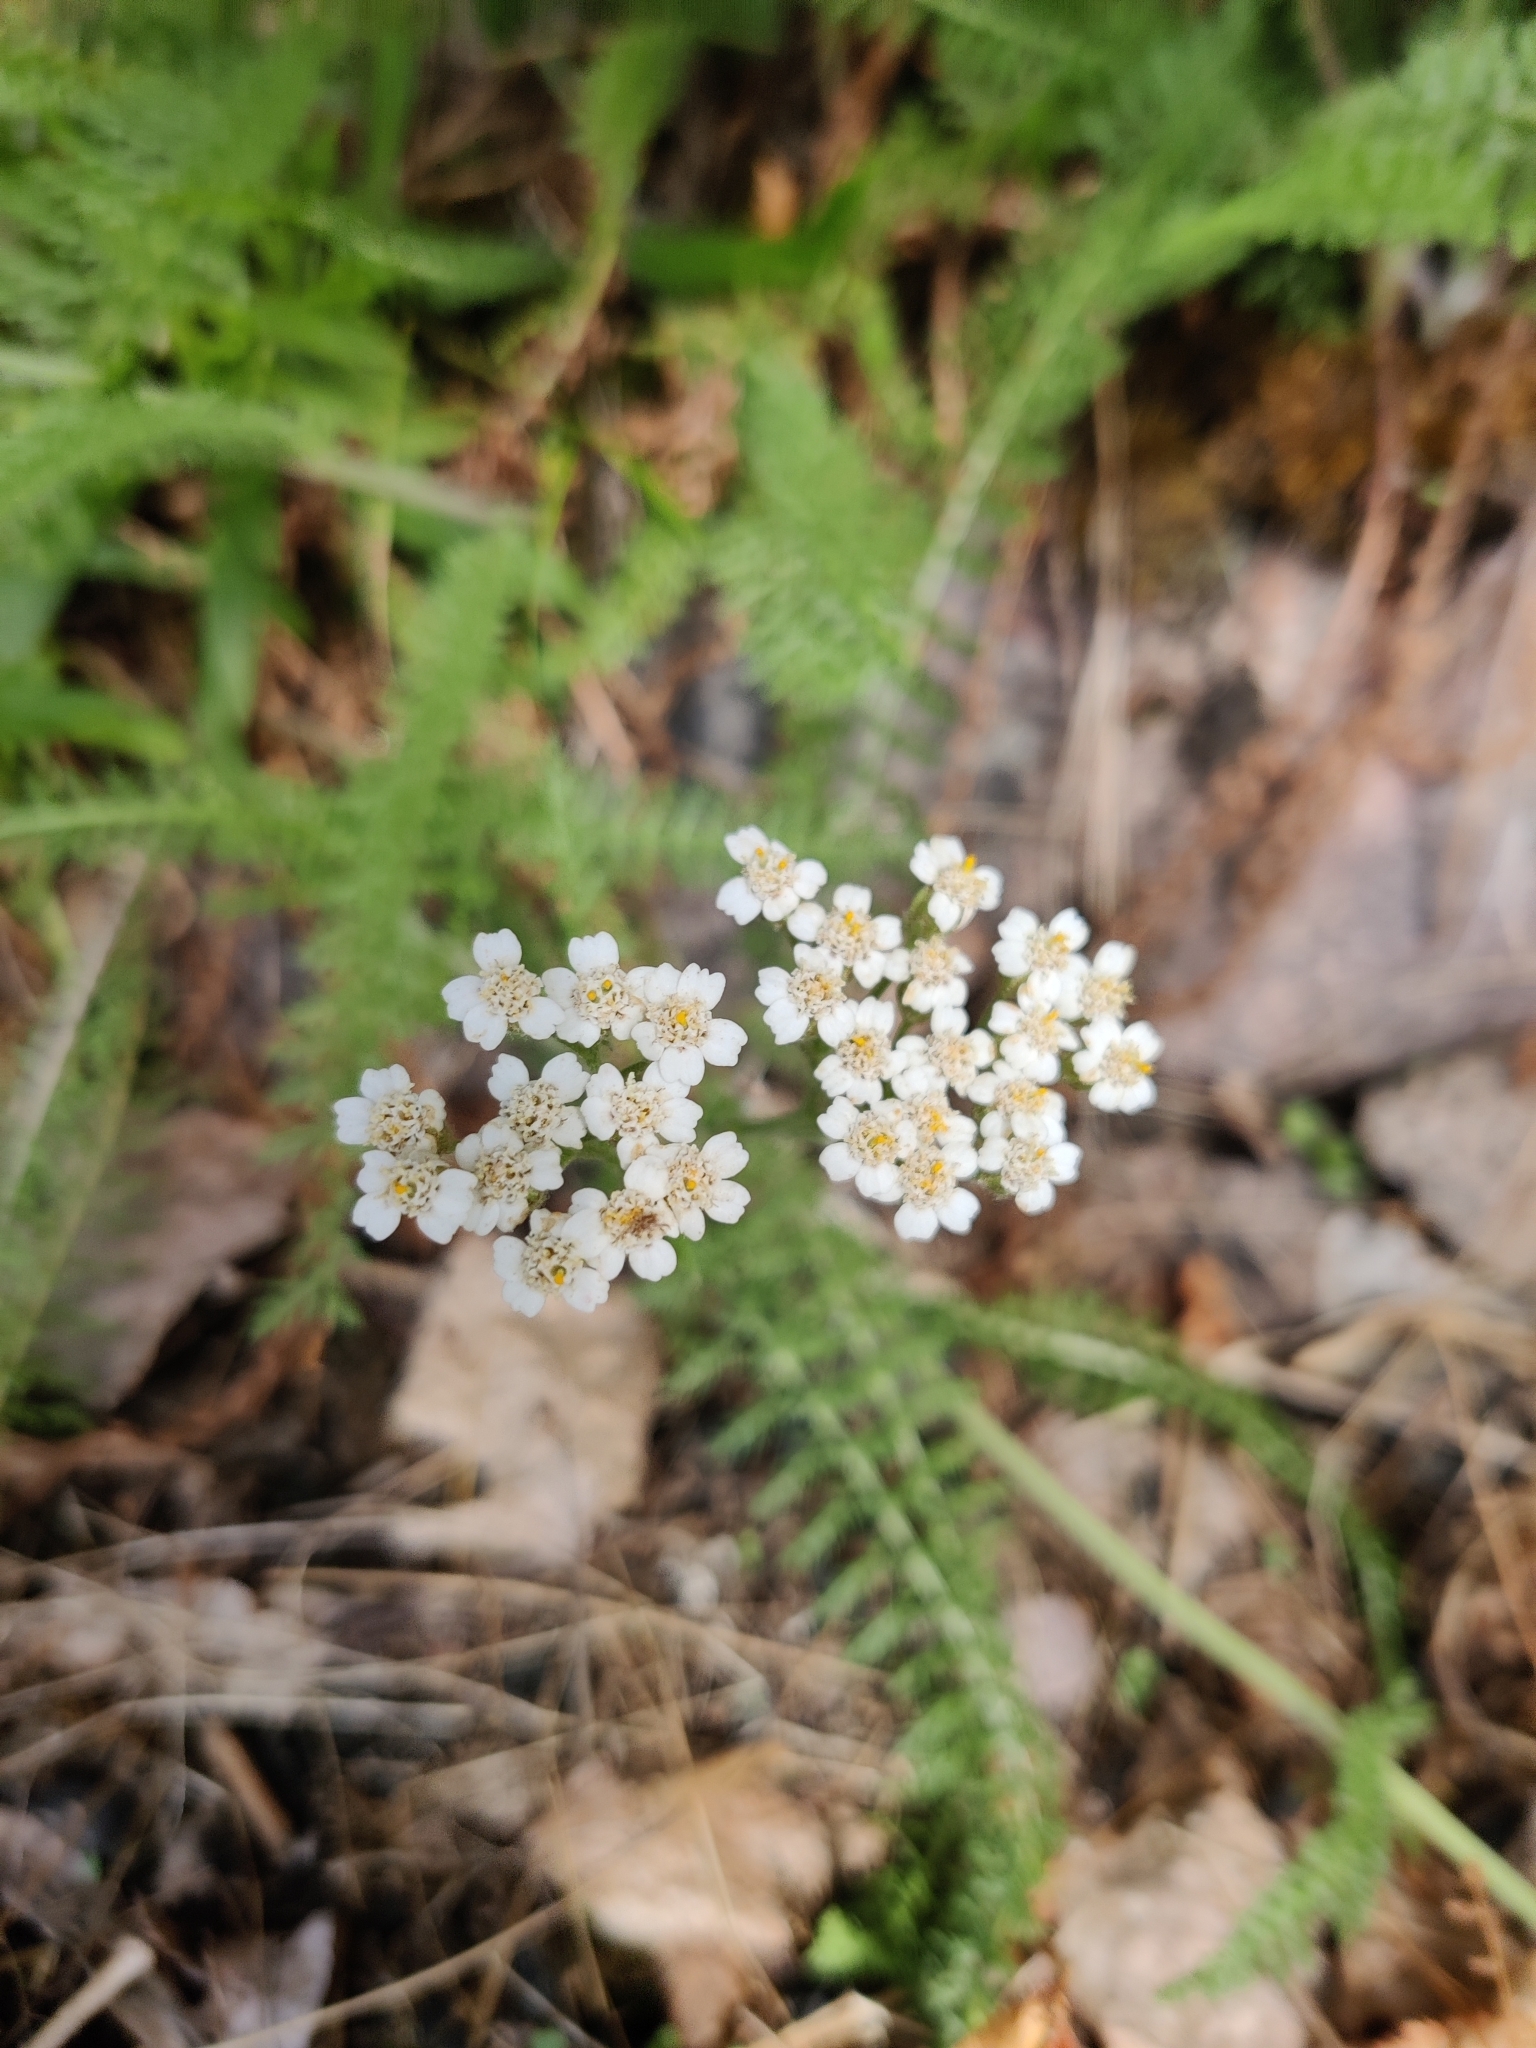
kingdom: Plantae
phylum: Tracheophyta
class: Magnoliopsida
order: Asterales
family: Asteraceae
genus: Achillea
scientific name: Achillea millefolium
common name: Yarrow
